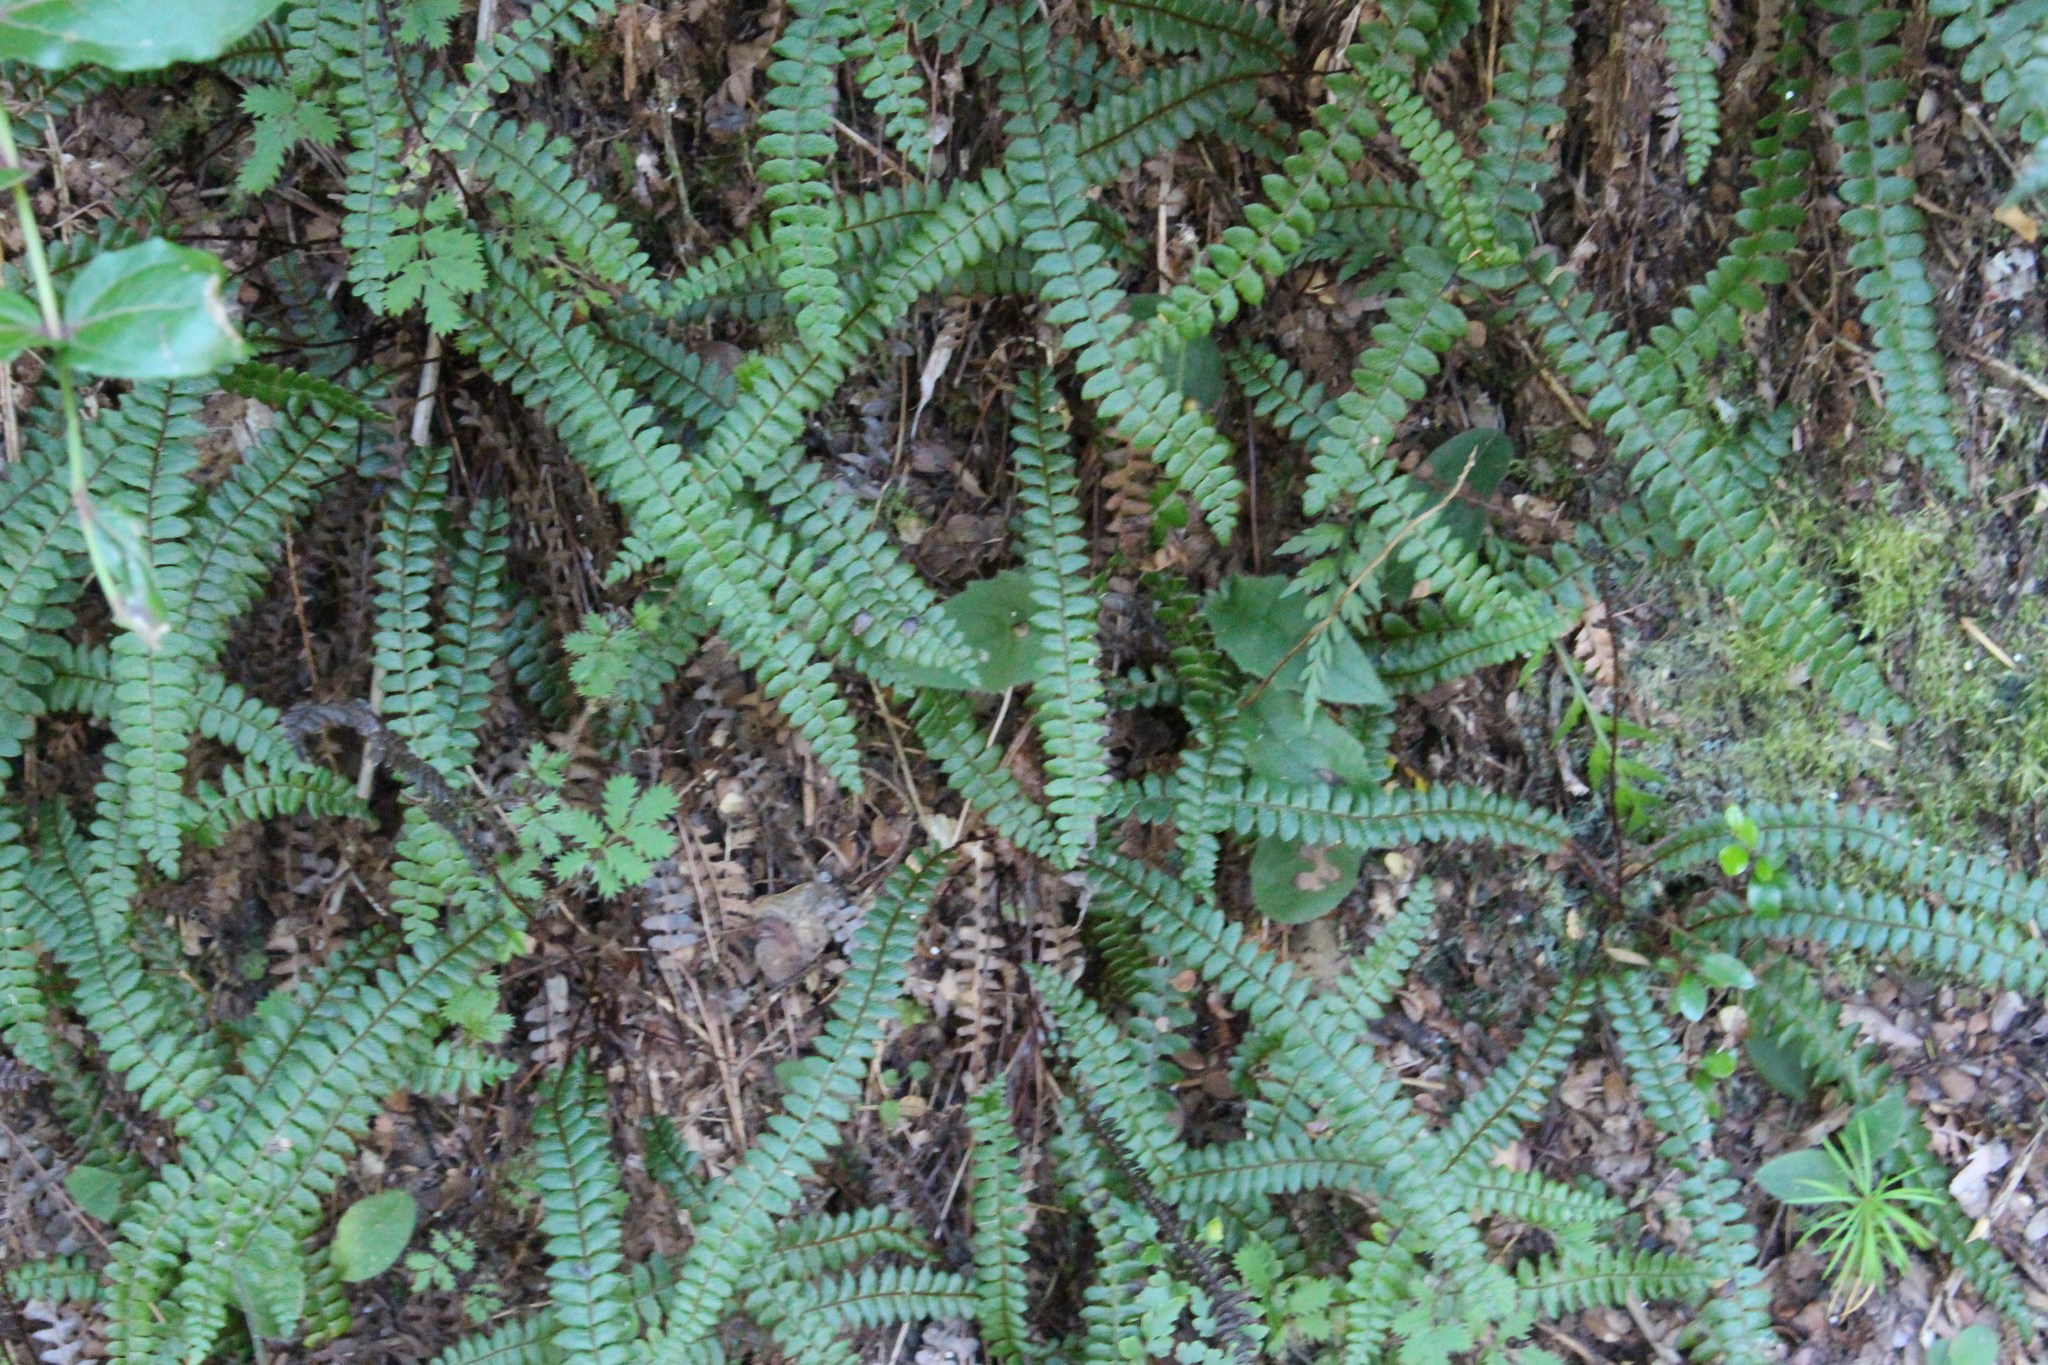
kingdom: Plantae
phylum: Tracheophyta
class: Polypodiopsida
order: Polypodiales
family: Blechnaceae
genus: Austroblechnum
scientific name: Austroblechnum penna-marina
